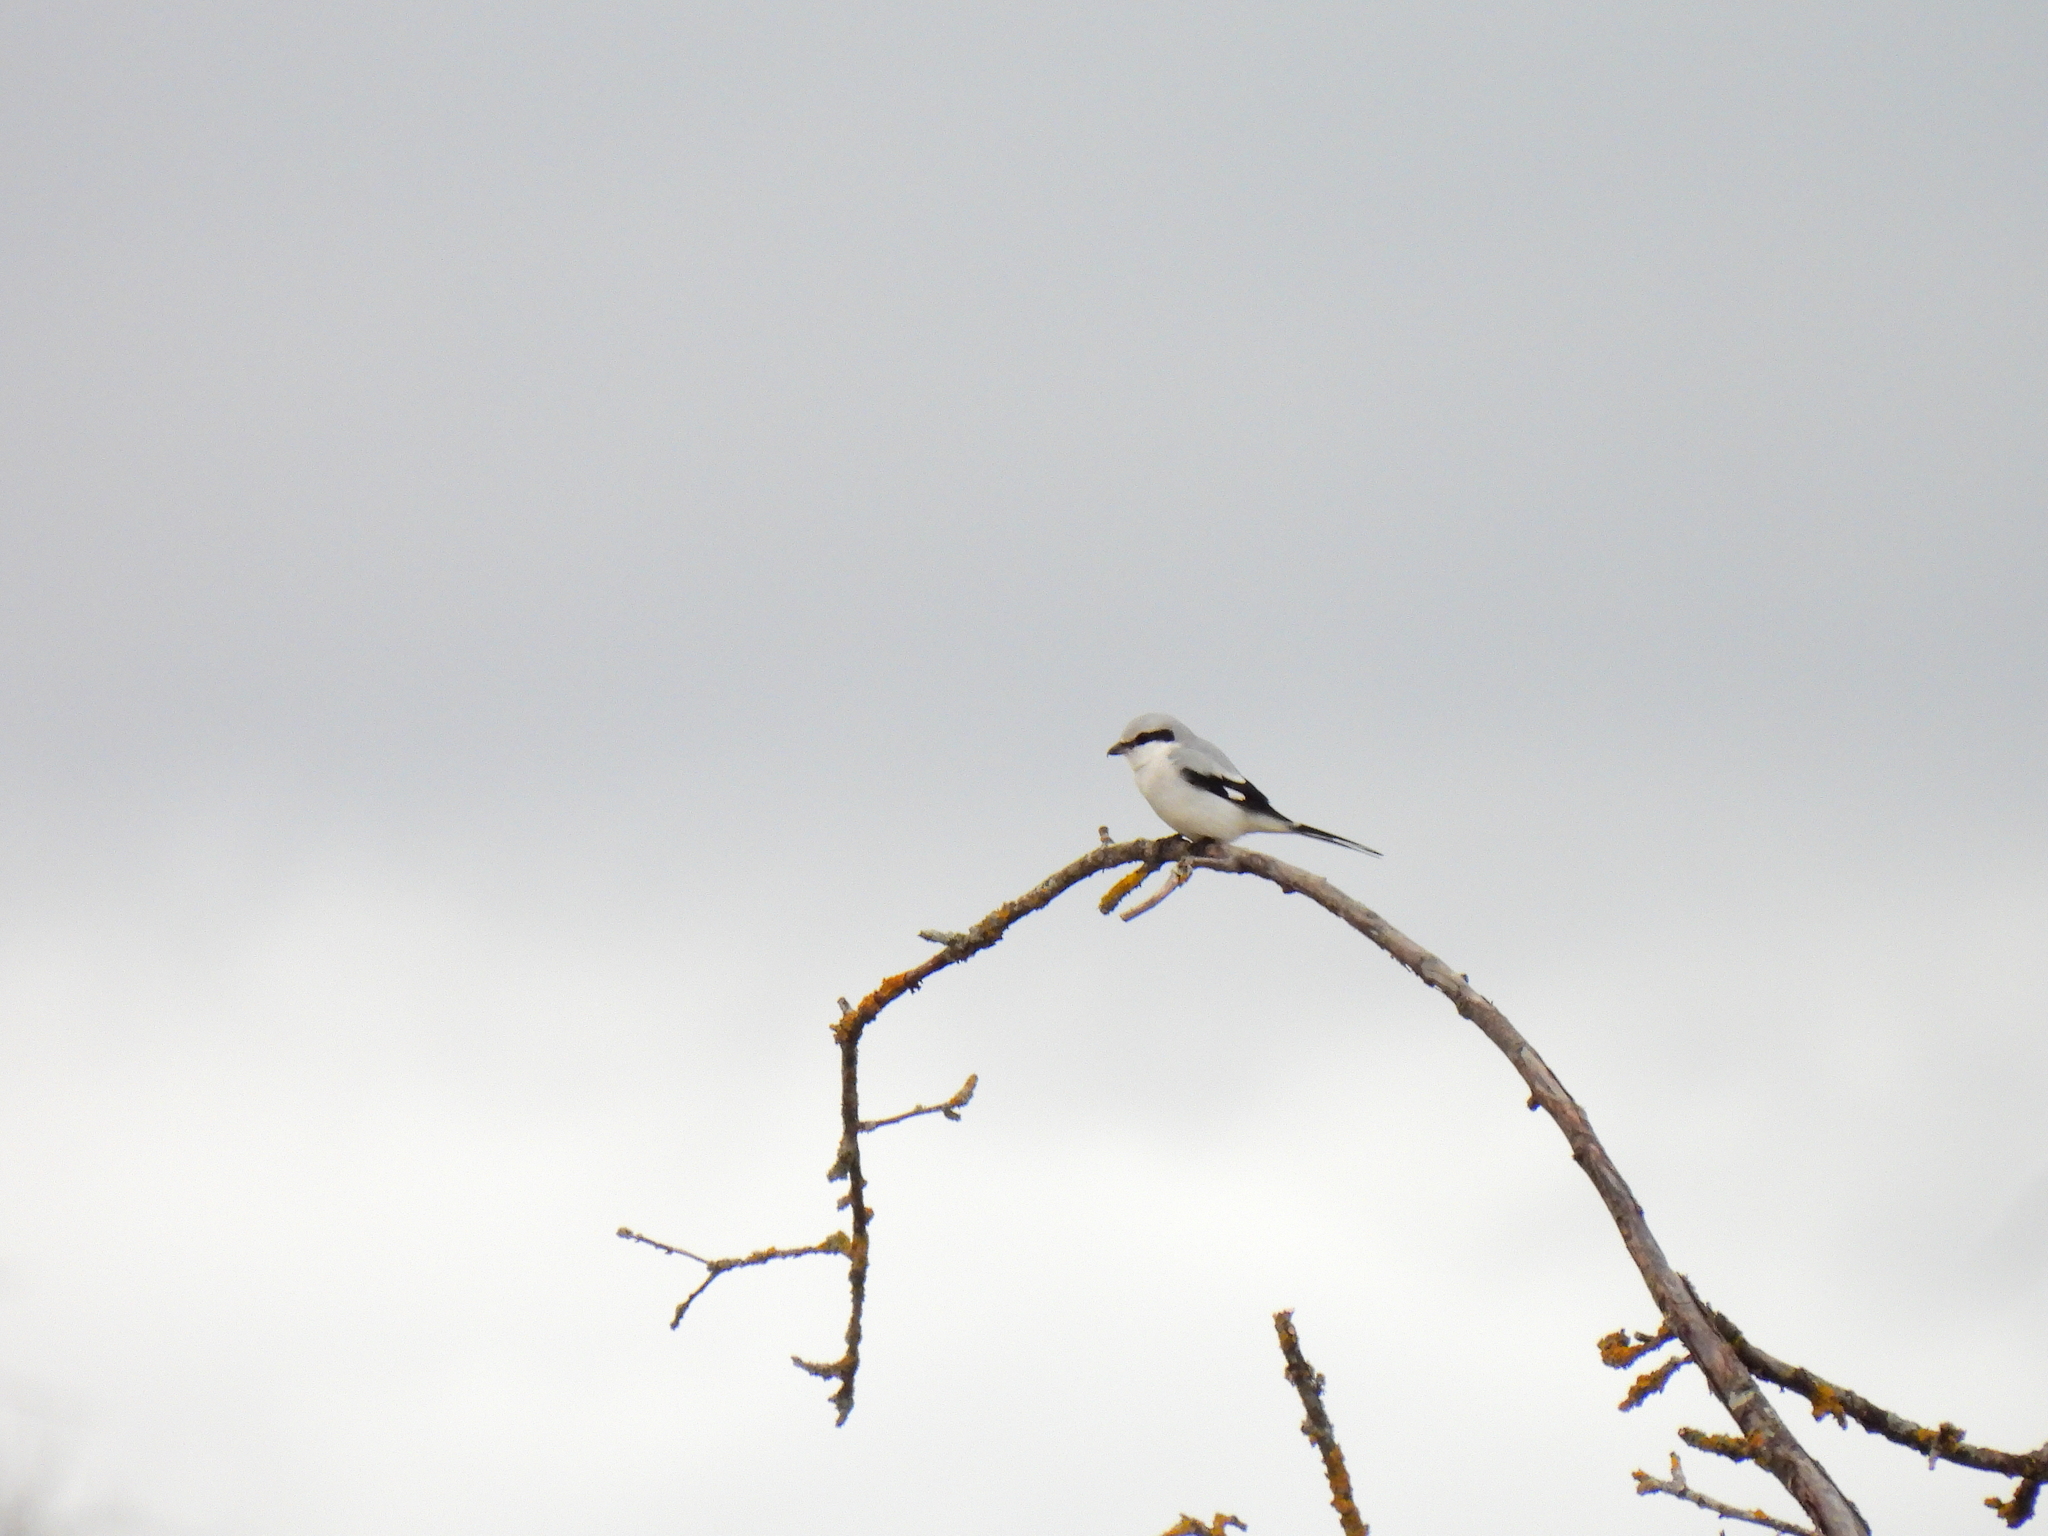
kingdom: Animalia
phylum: Chordata
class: Aves
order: Passeriformes
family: Laniidae
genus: Lanius
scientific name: Lanius excubitor
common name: Great grey shrike
